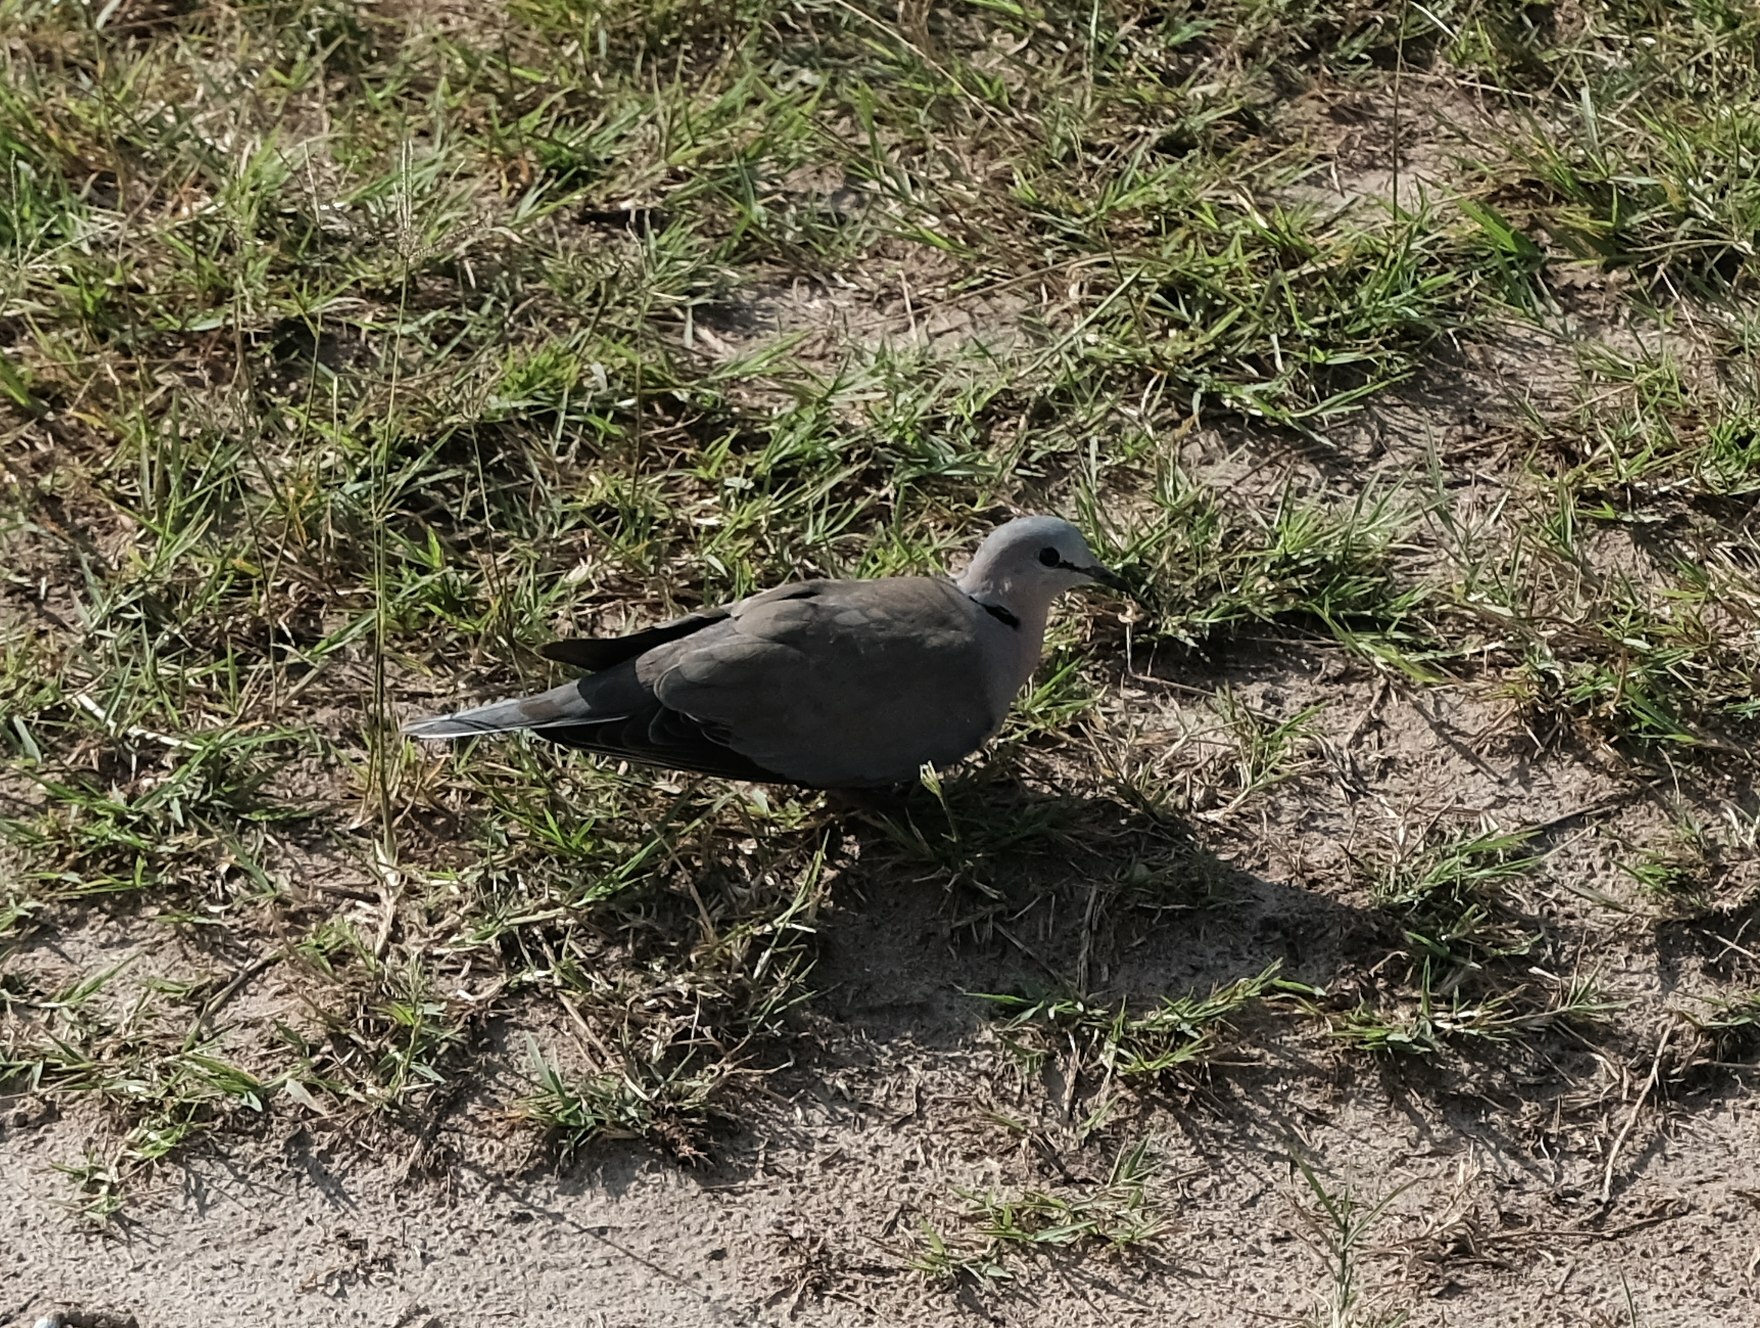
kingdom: Animalia
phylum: Chordata
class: Aves
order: Columbiformes
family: Columbidae
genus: Streptopelia
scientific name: Streptopelia capicola
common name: Ring-necked dove
